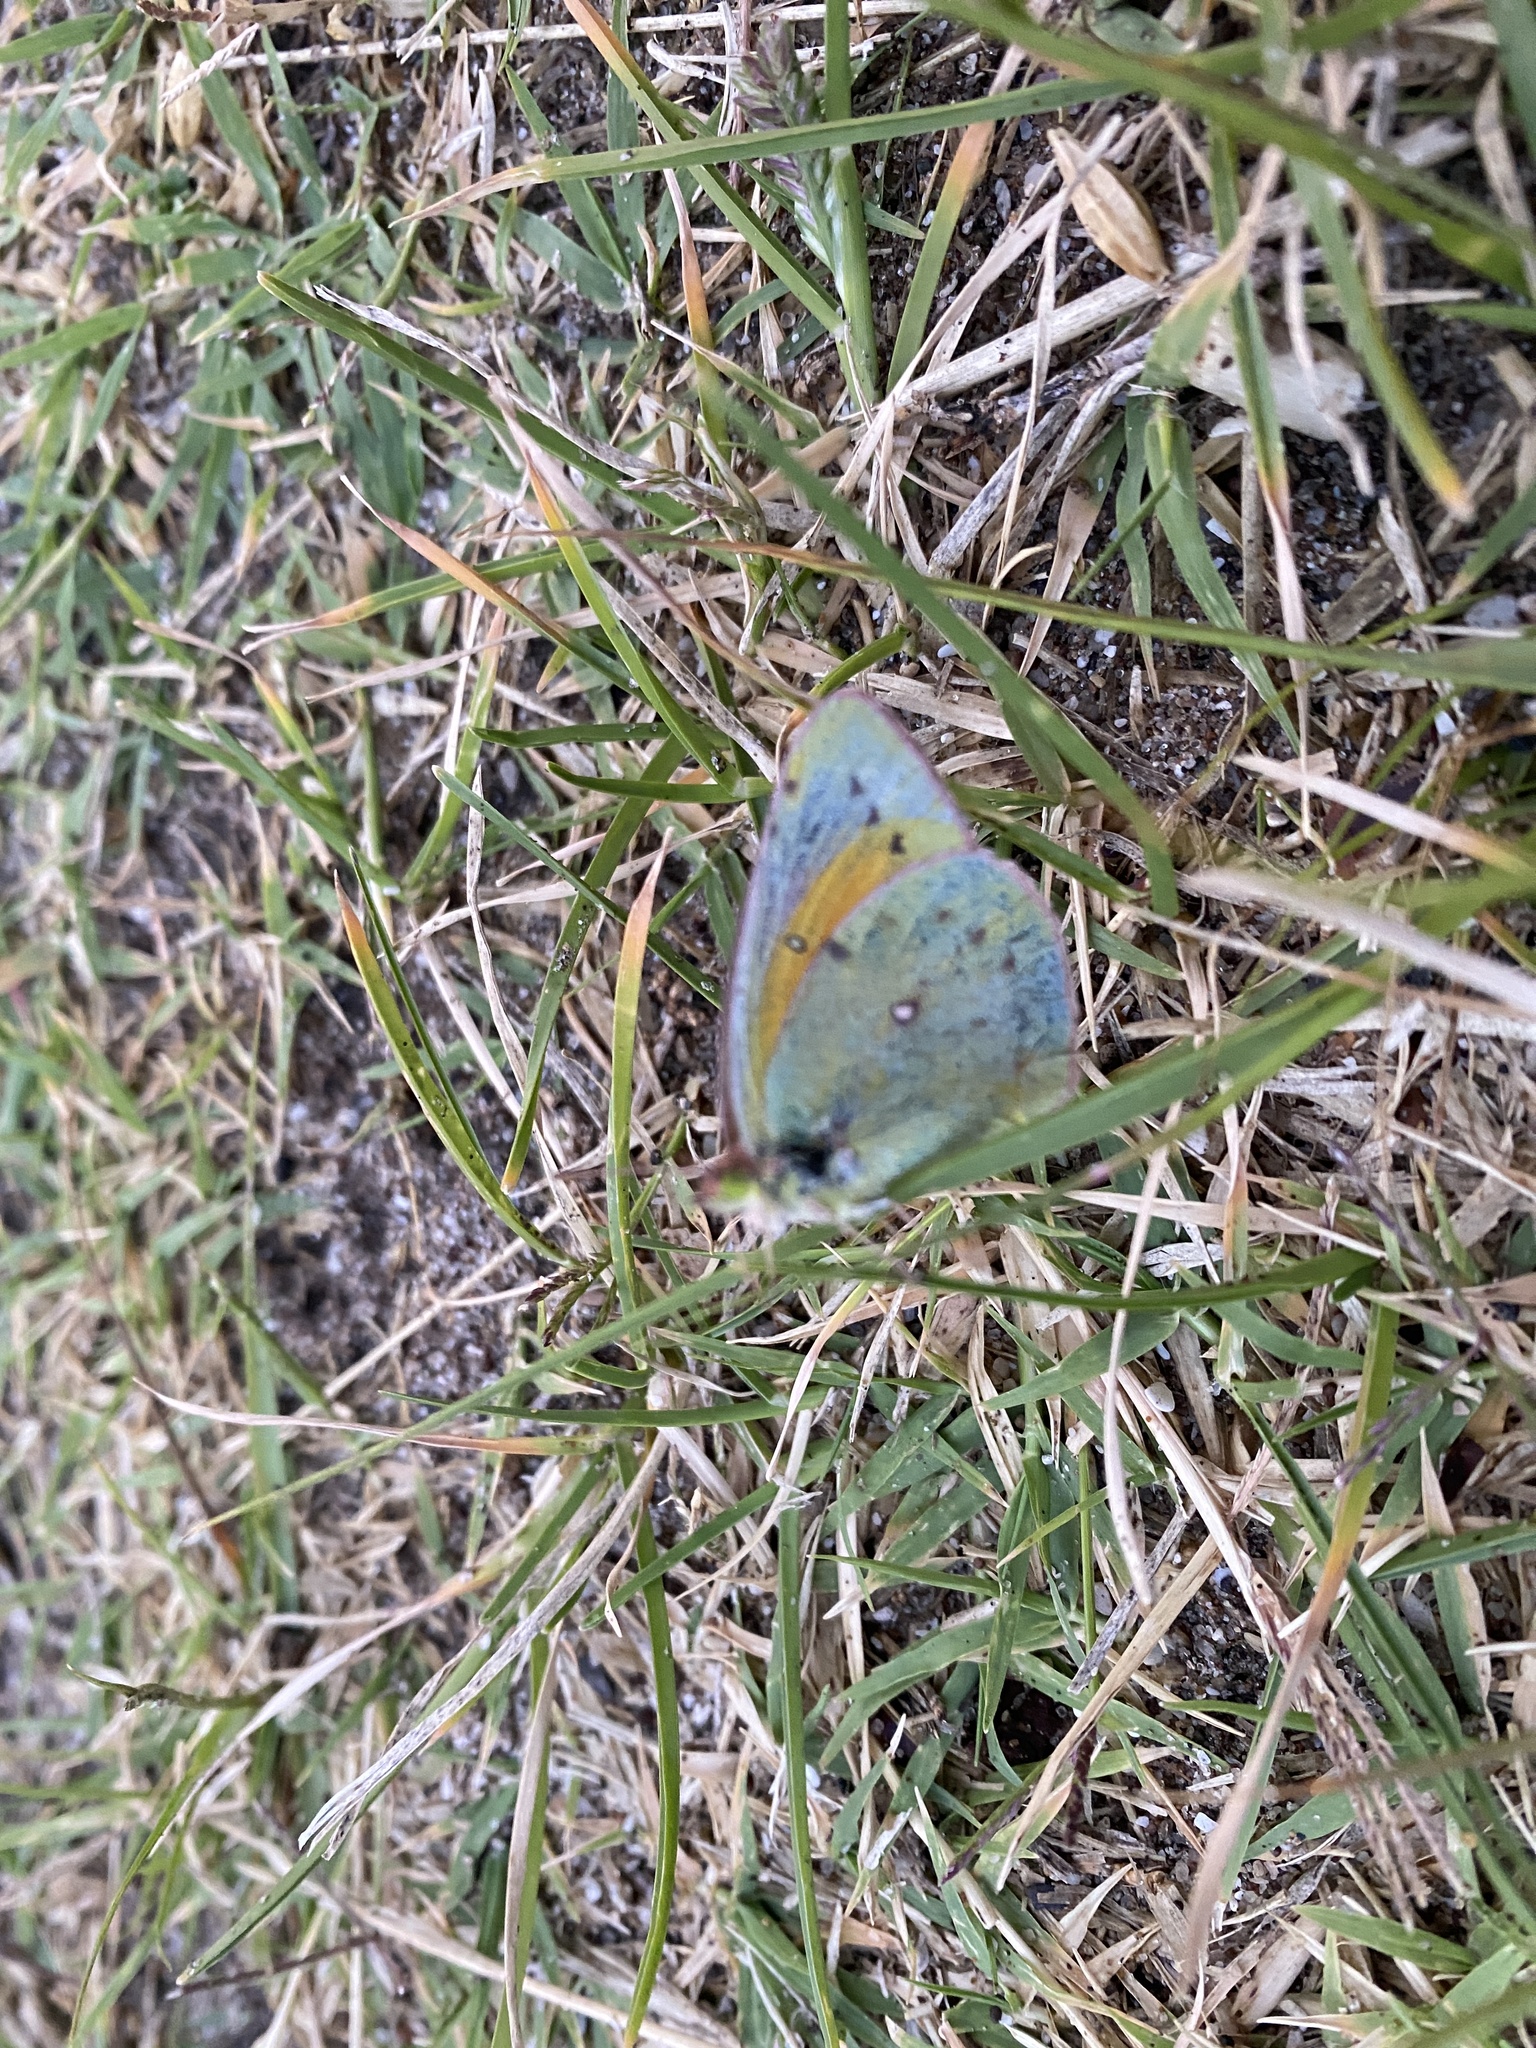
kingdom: Animalia
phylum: Arthropoda
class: Insecta
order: Lepidoptera
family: Pieridae
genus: Colias
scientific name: Colias lesbia
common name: Lesbia clouded yellow
